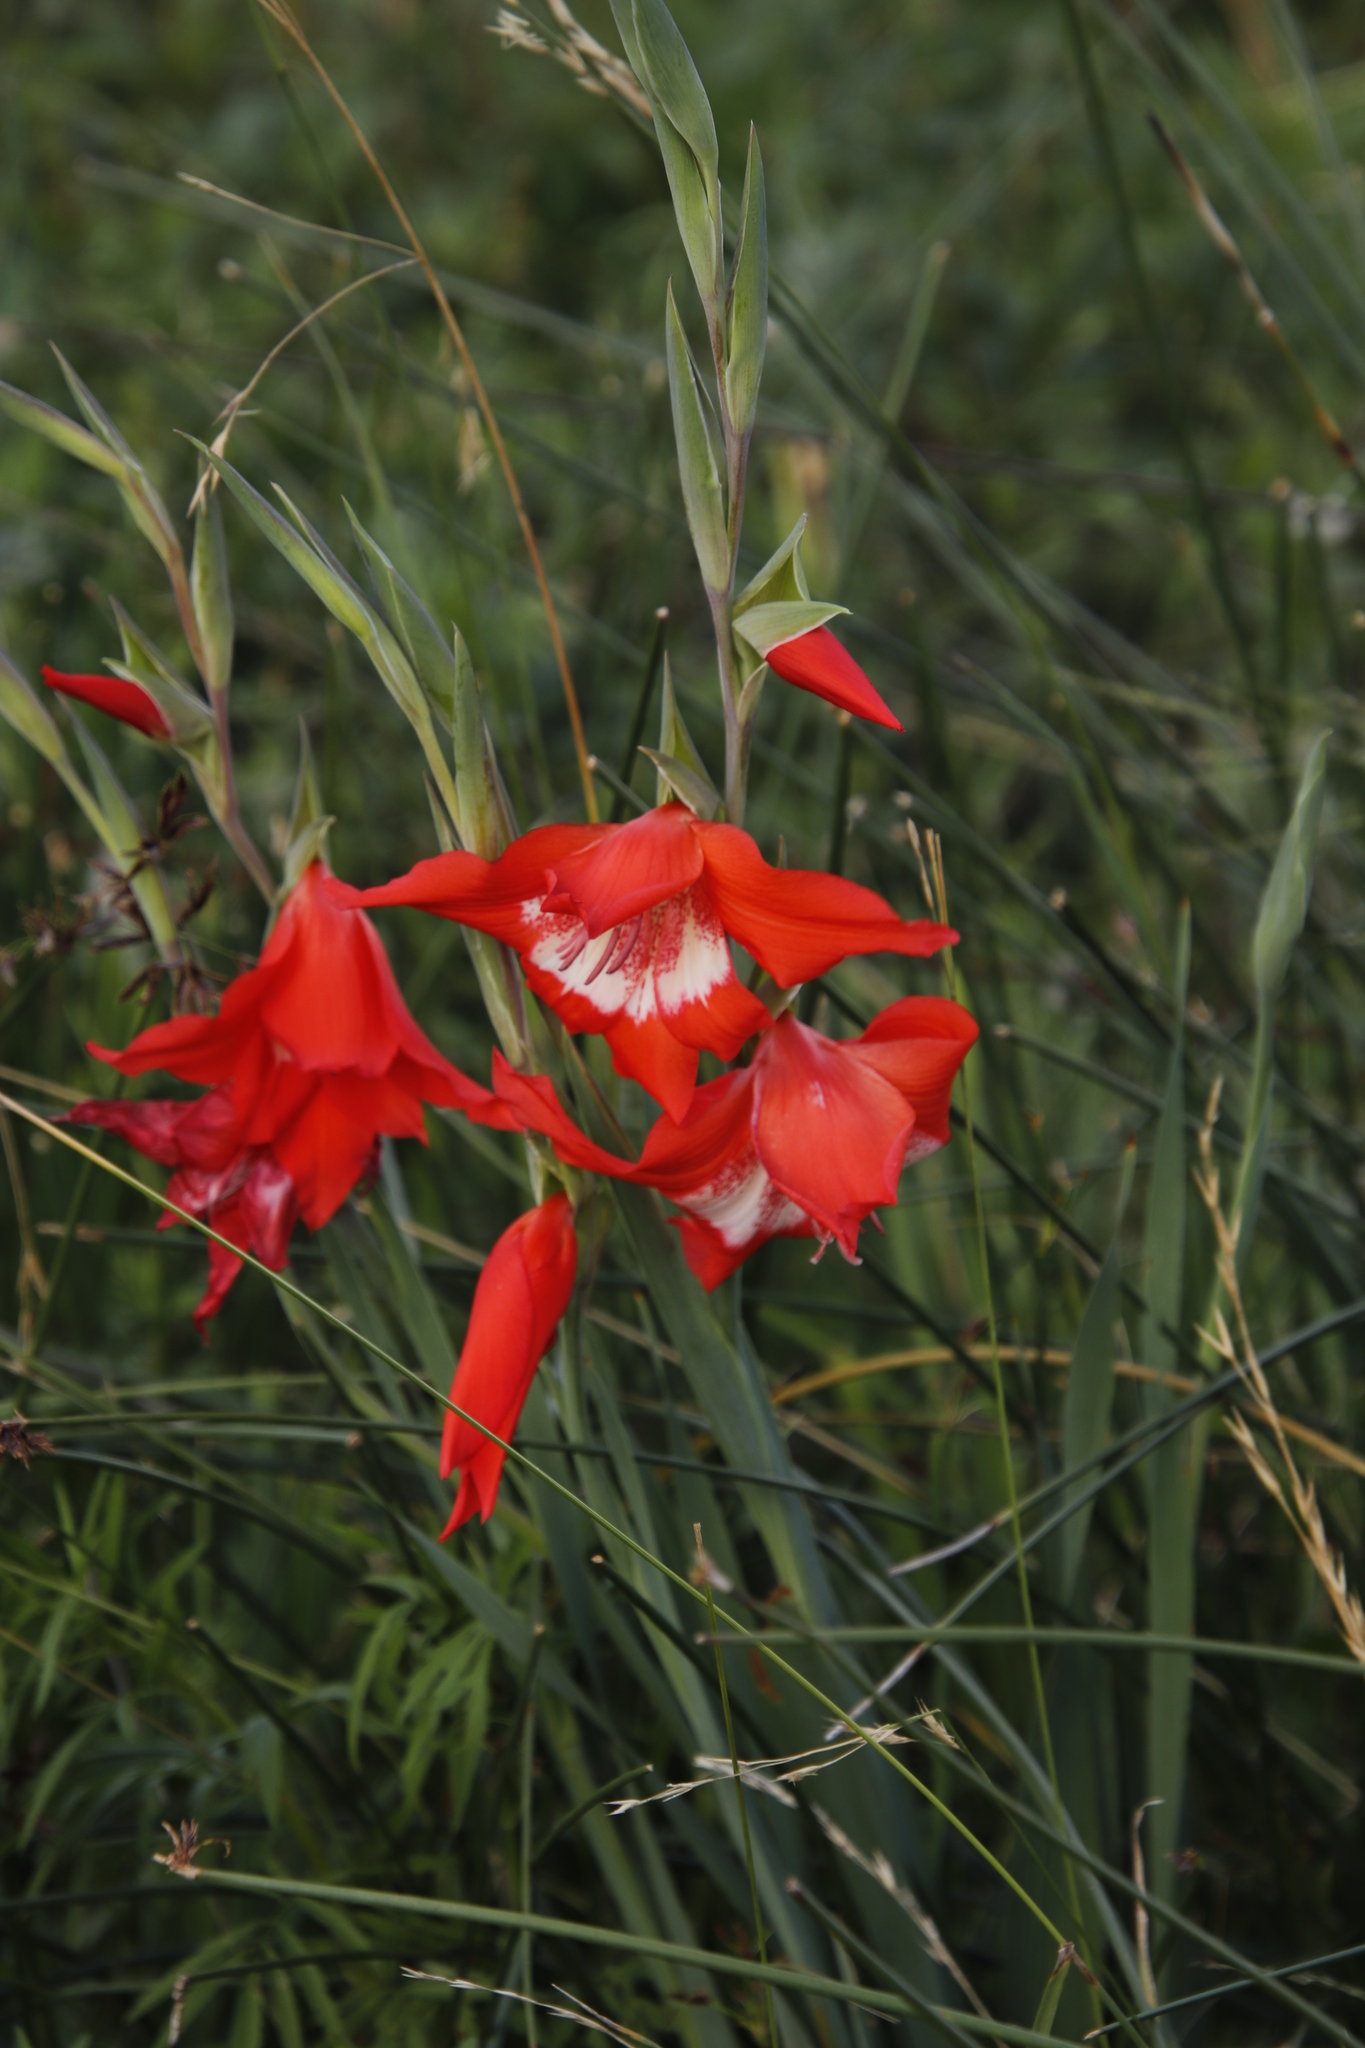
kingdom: Plantae
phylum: Tracheophyta
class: Liliopsida
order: Asparagales
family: Iridaceae
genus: Gladiolus
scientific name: Gladiolus saundersii
